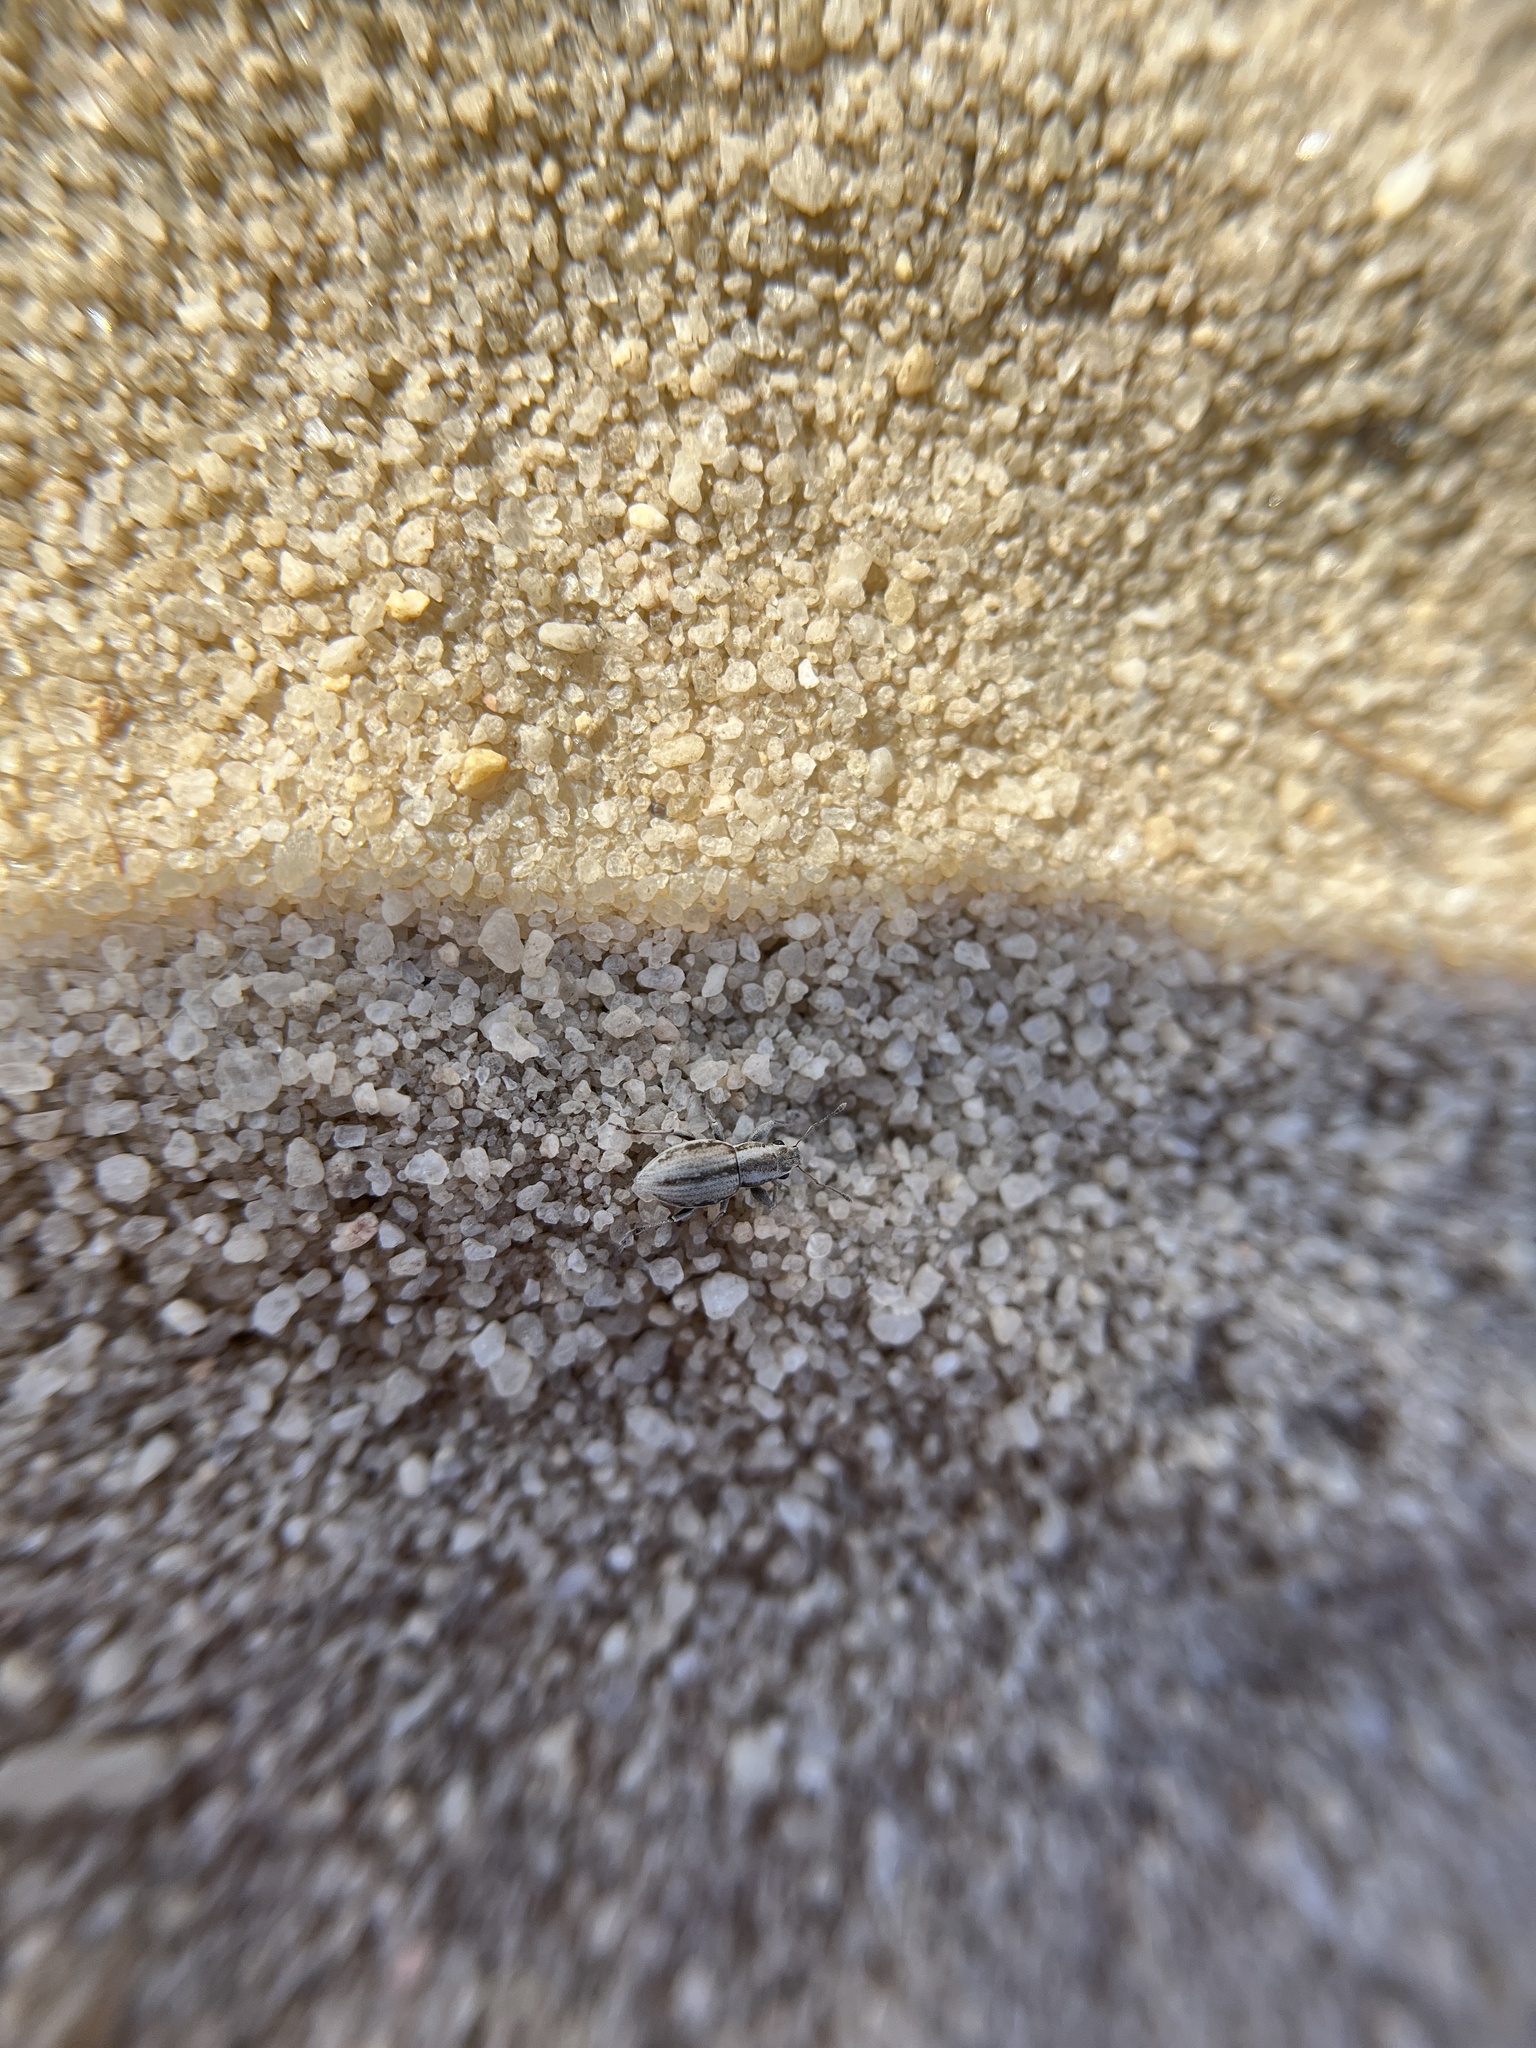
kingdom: Animalia
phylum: Arthropoda
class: Insecta
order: Coleoptera
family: Curculionidae
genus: Atrichonotus
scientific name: Atrichonotus taeniatulus
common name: Small lucerne weevil
